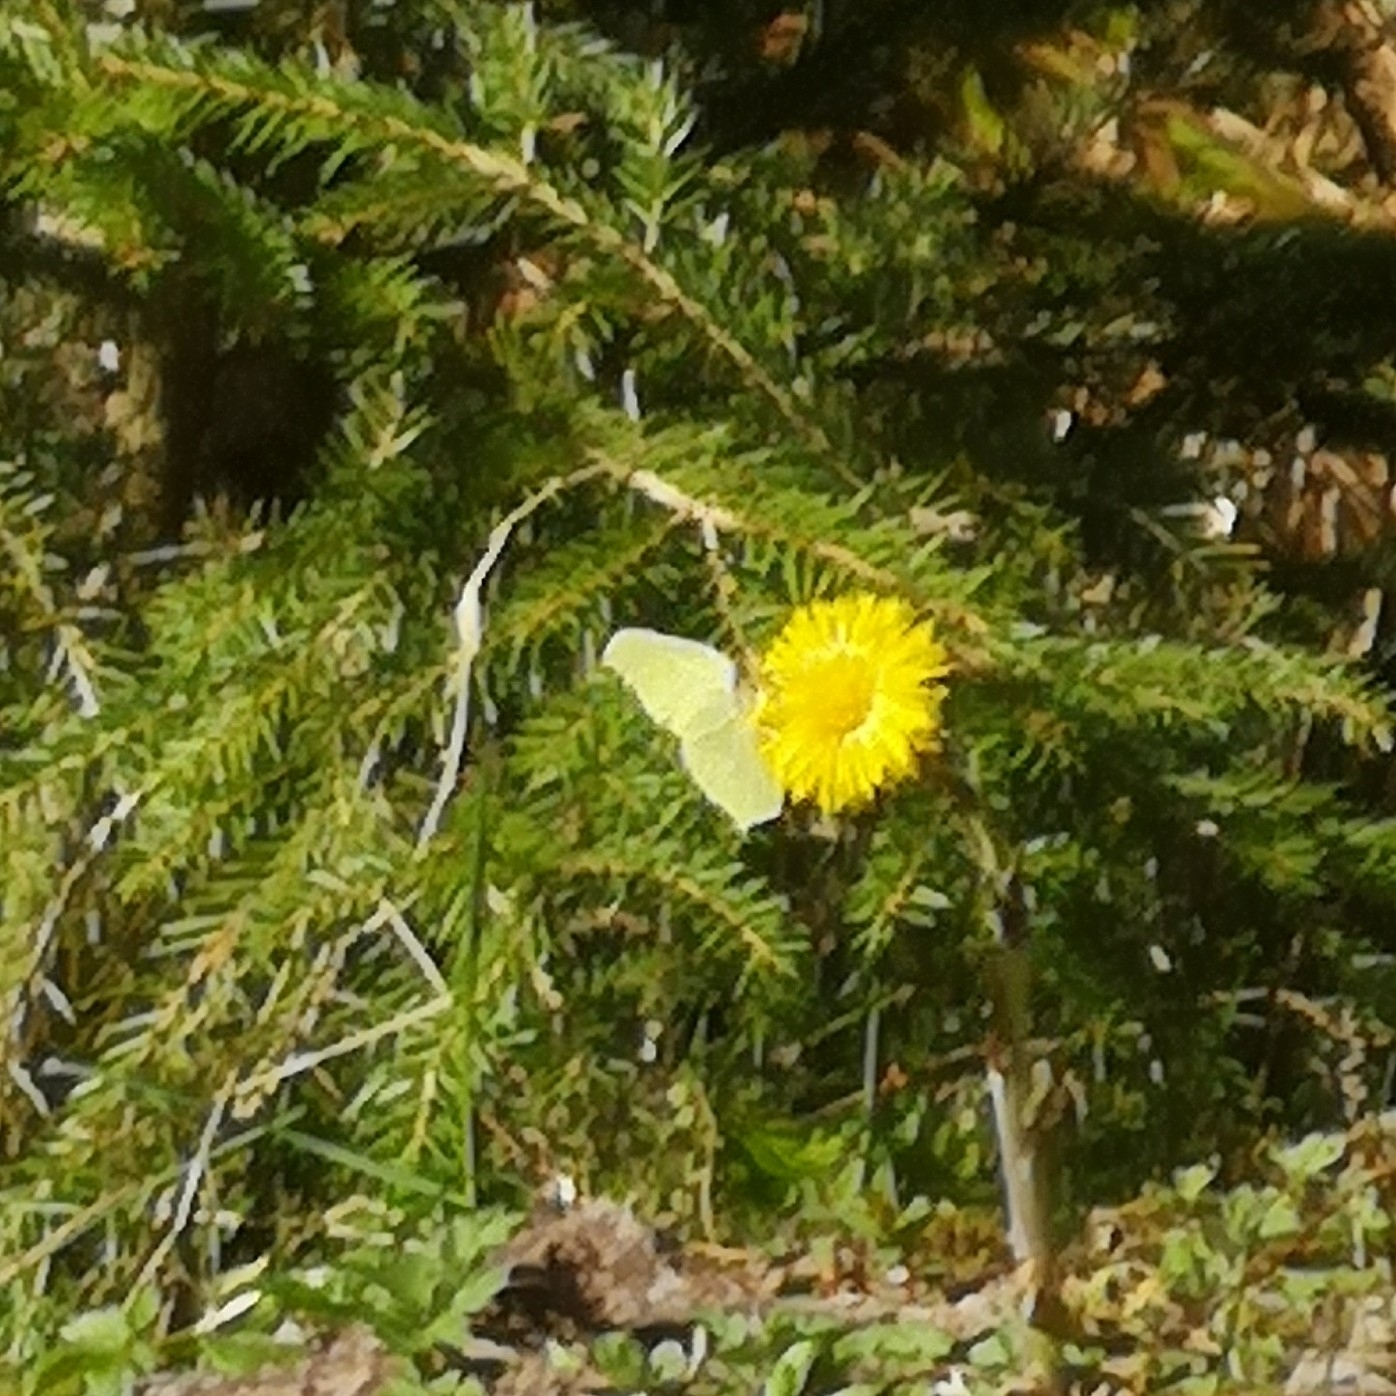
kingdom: Animalia
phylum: Arthropoda
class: Insecta
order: Lepidoptera
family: Pieridae
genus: Gonepteryx
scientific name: Gonepteryx rhamni
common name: Brimstone
